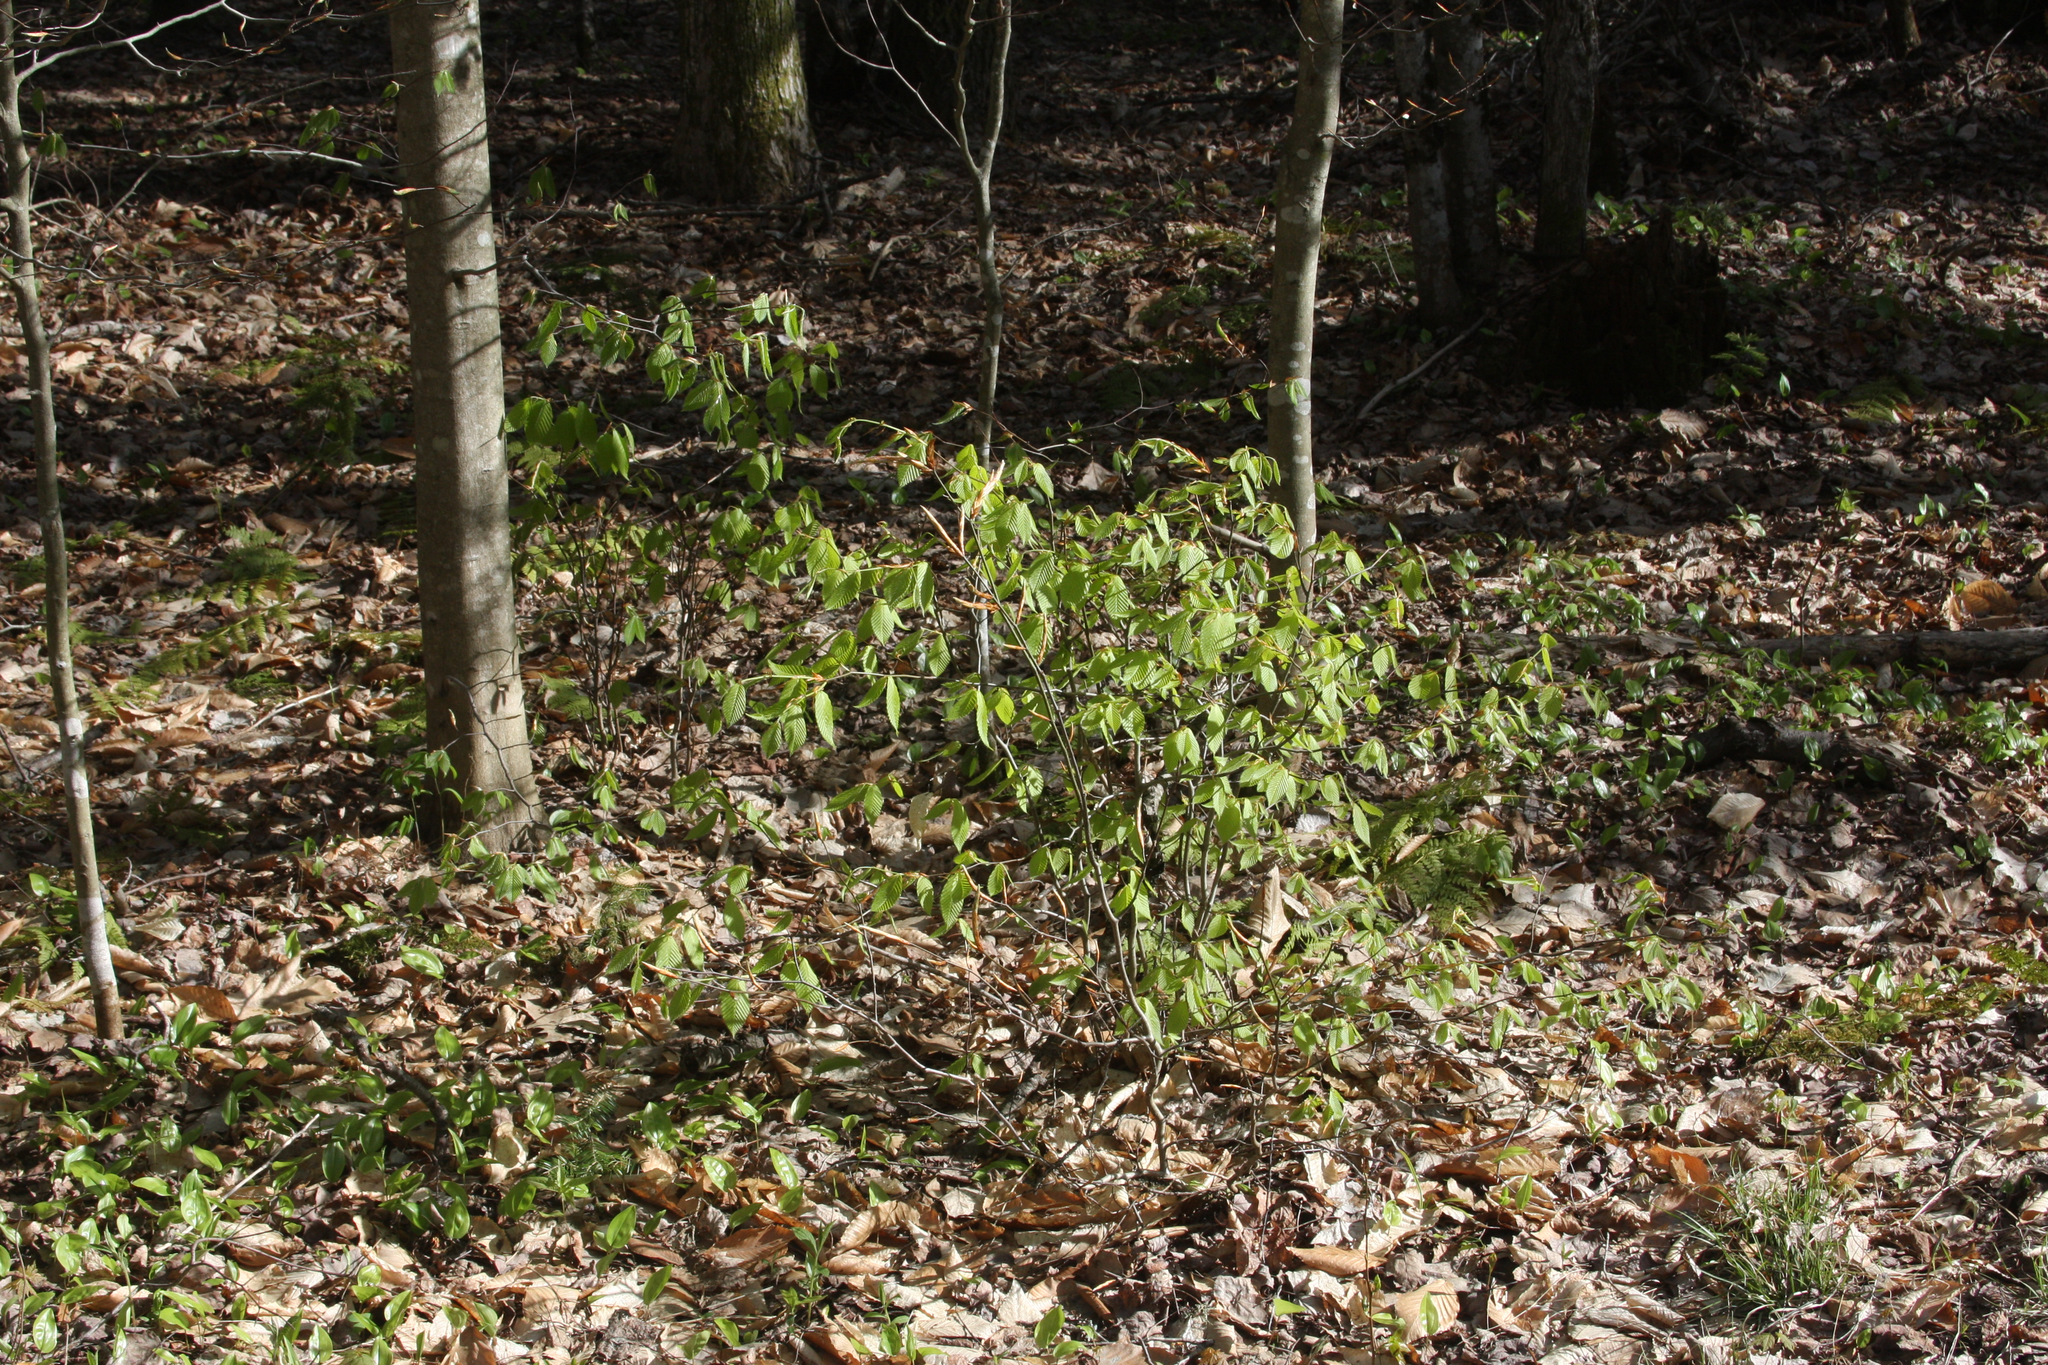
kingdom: Plantae
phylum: Tracheophyta
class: Magnoliopsida
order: Fagales
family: Fagaceae
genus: Fagus
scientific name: Fagus grandifolia
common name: American beech
